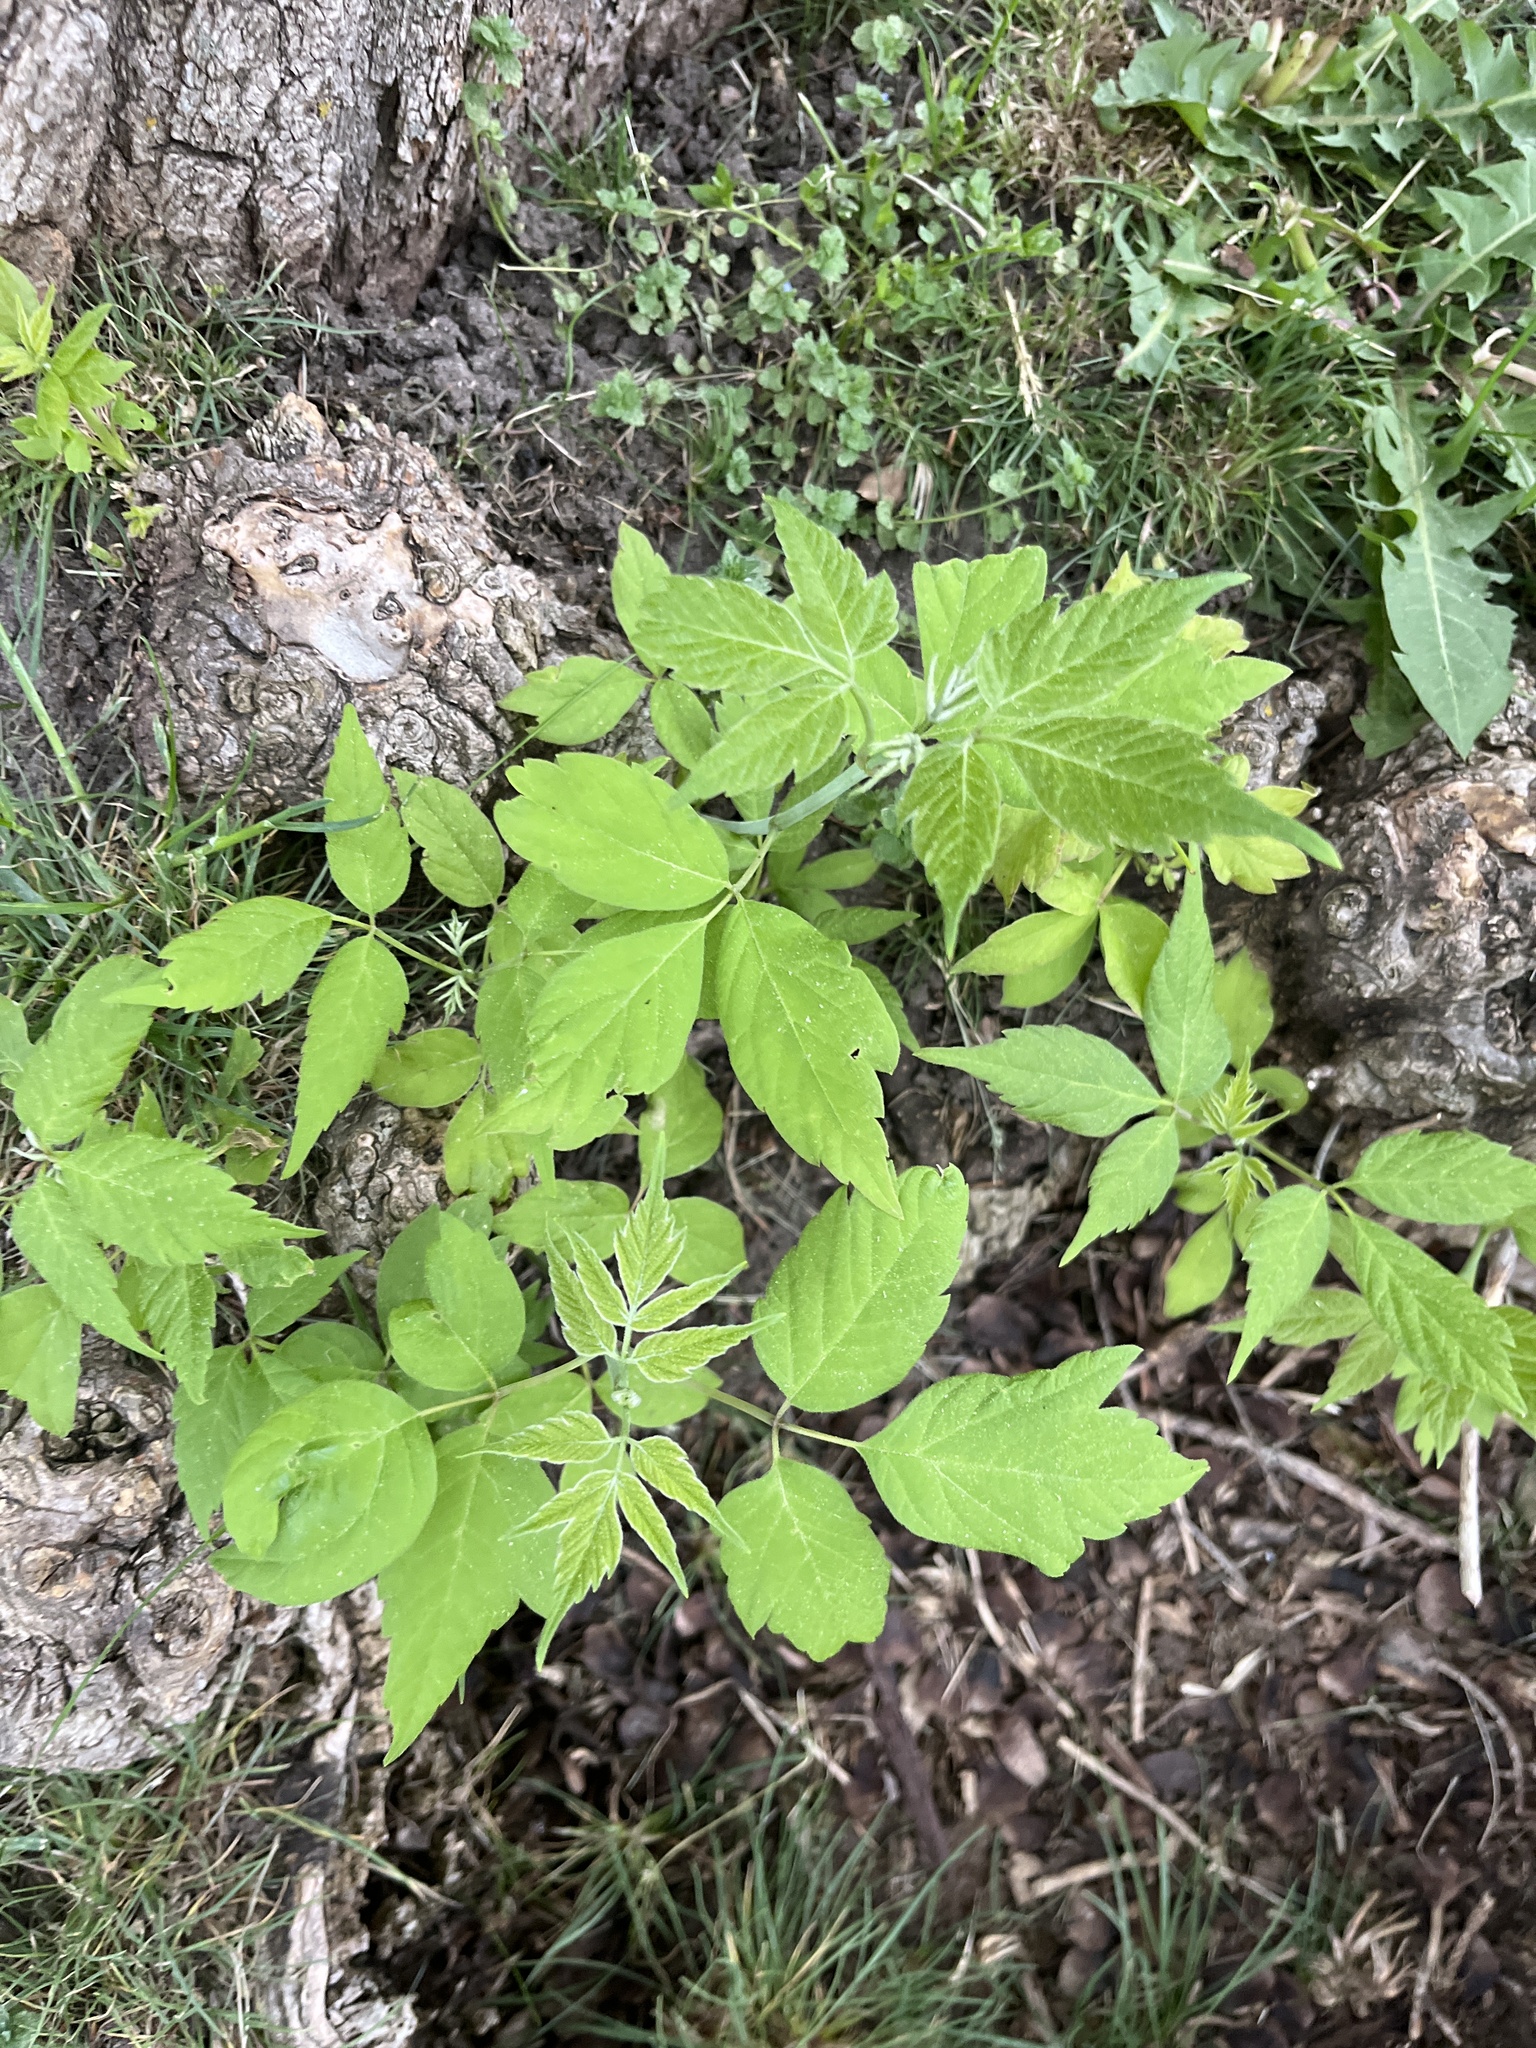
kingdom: Plantae
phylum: Tracheophyta
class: Magnoliopsida
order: Sapindales
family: Sapindaceae
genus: Acer
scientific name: Acer negundo
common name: Ashleaf maple
